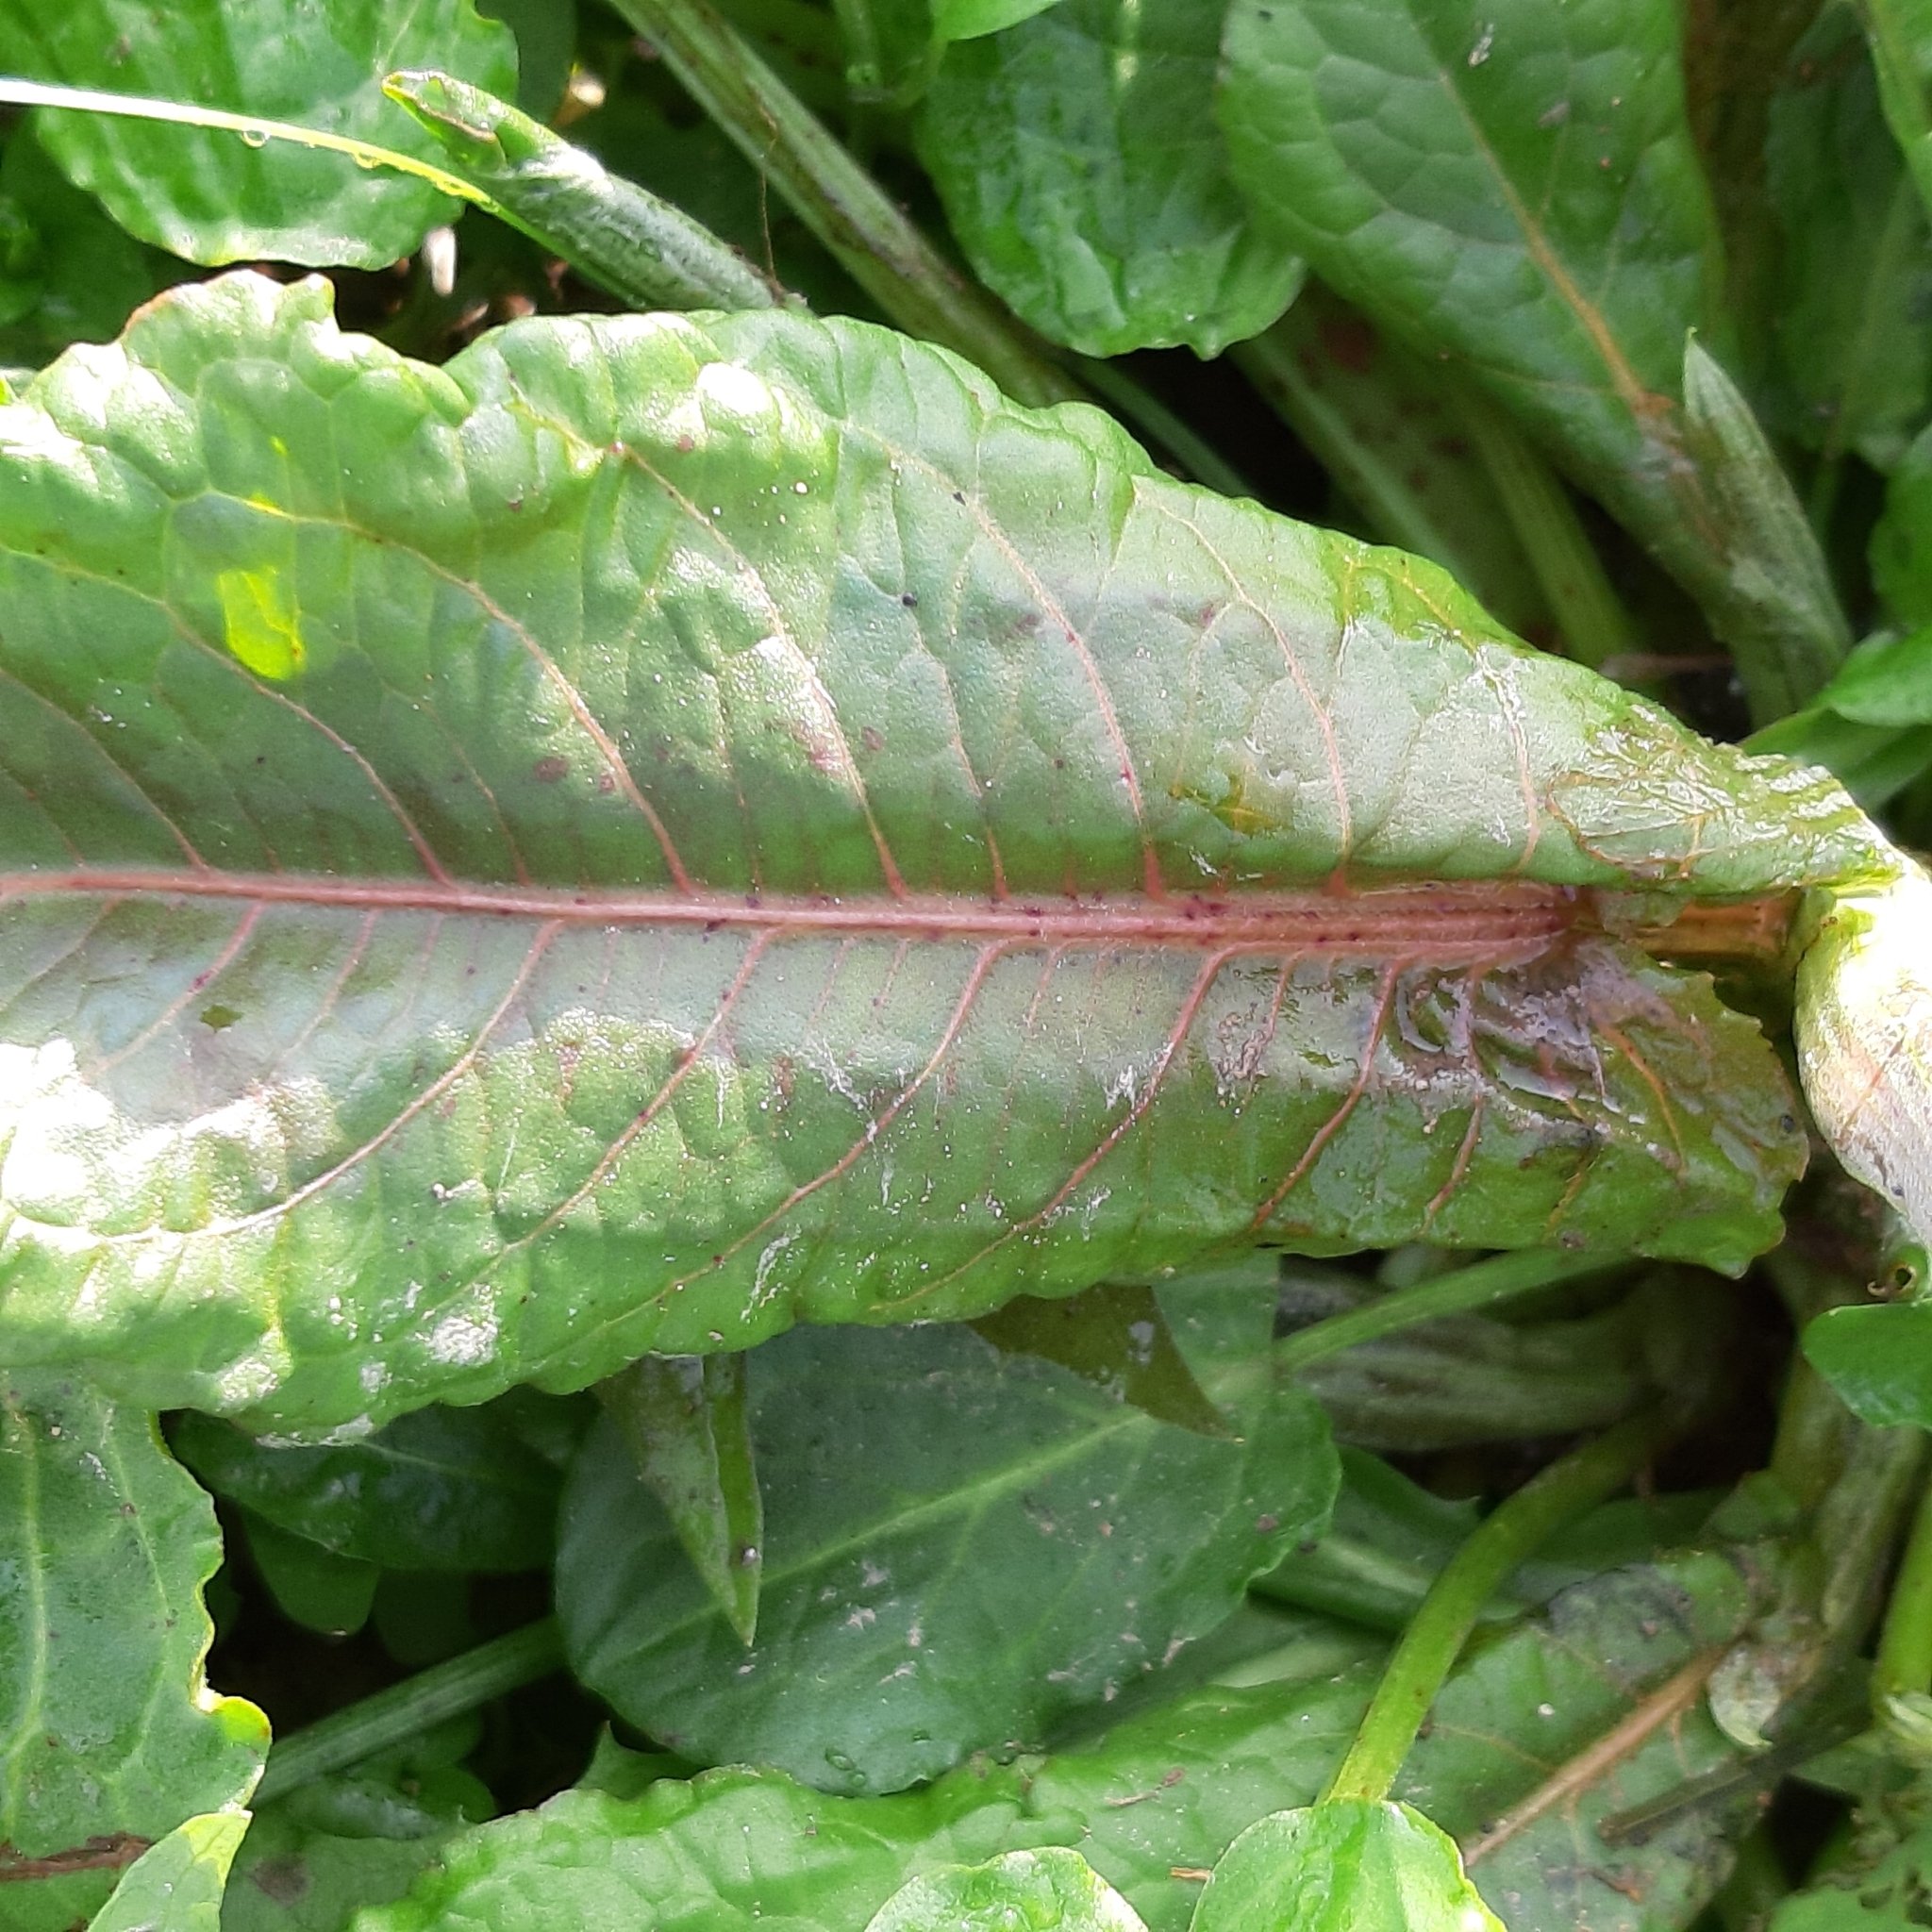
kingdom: Plantae
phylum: Tracheophyta
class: Magnoliopsida
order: Caryophyllales
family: Polygonaceae
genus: Rumex
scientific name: Rumex obtusifolius
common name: Bitter dock
